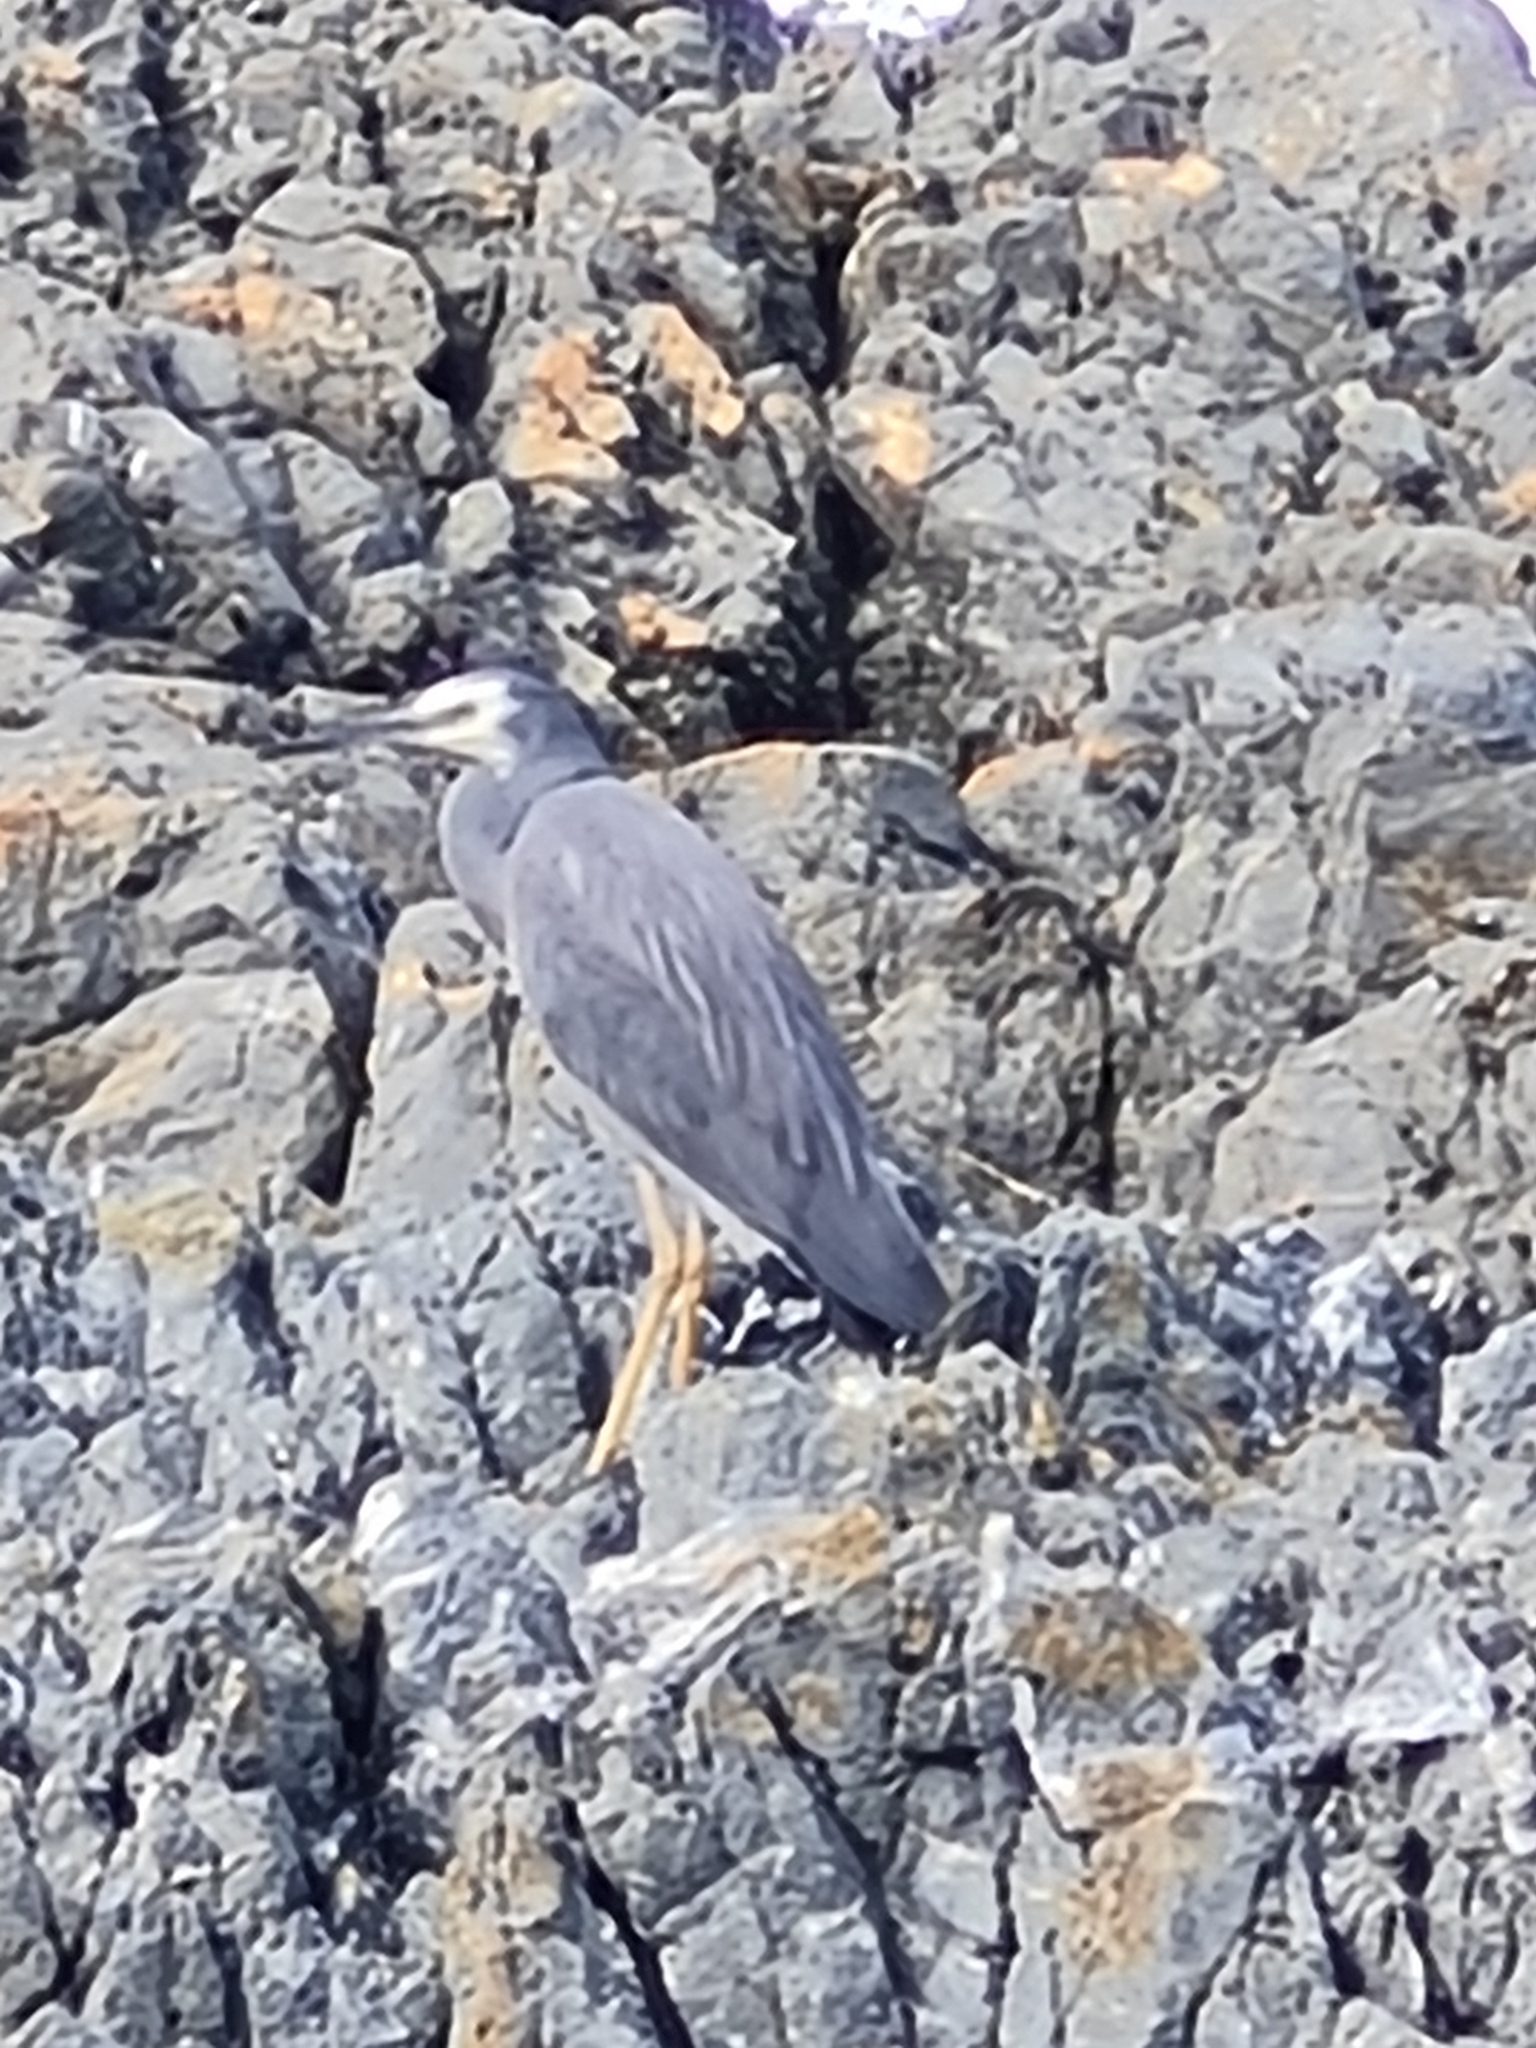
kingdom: Animalia
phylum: Chordata
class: Aves
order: Pelecaniformes
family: Ardeidae
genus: Egretta
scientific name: Egretta novaehollandiae
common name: White-faced heron
